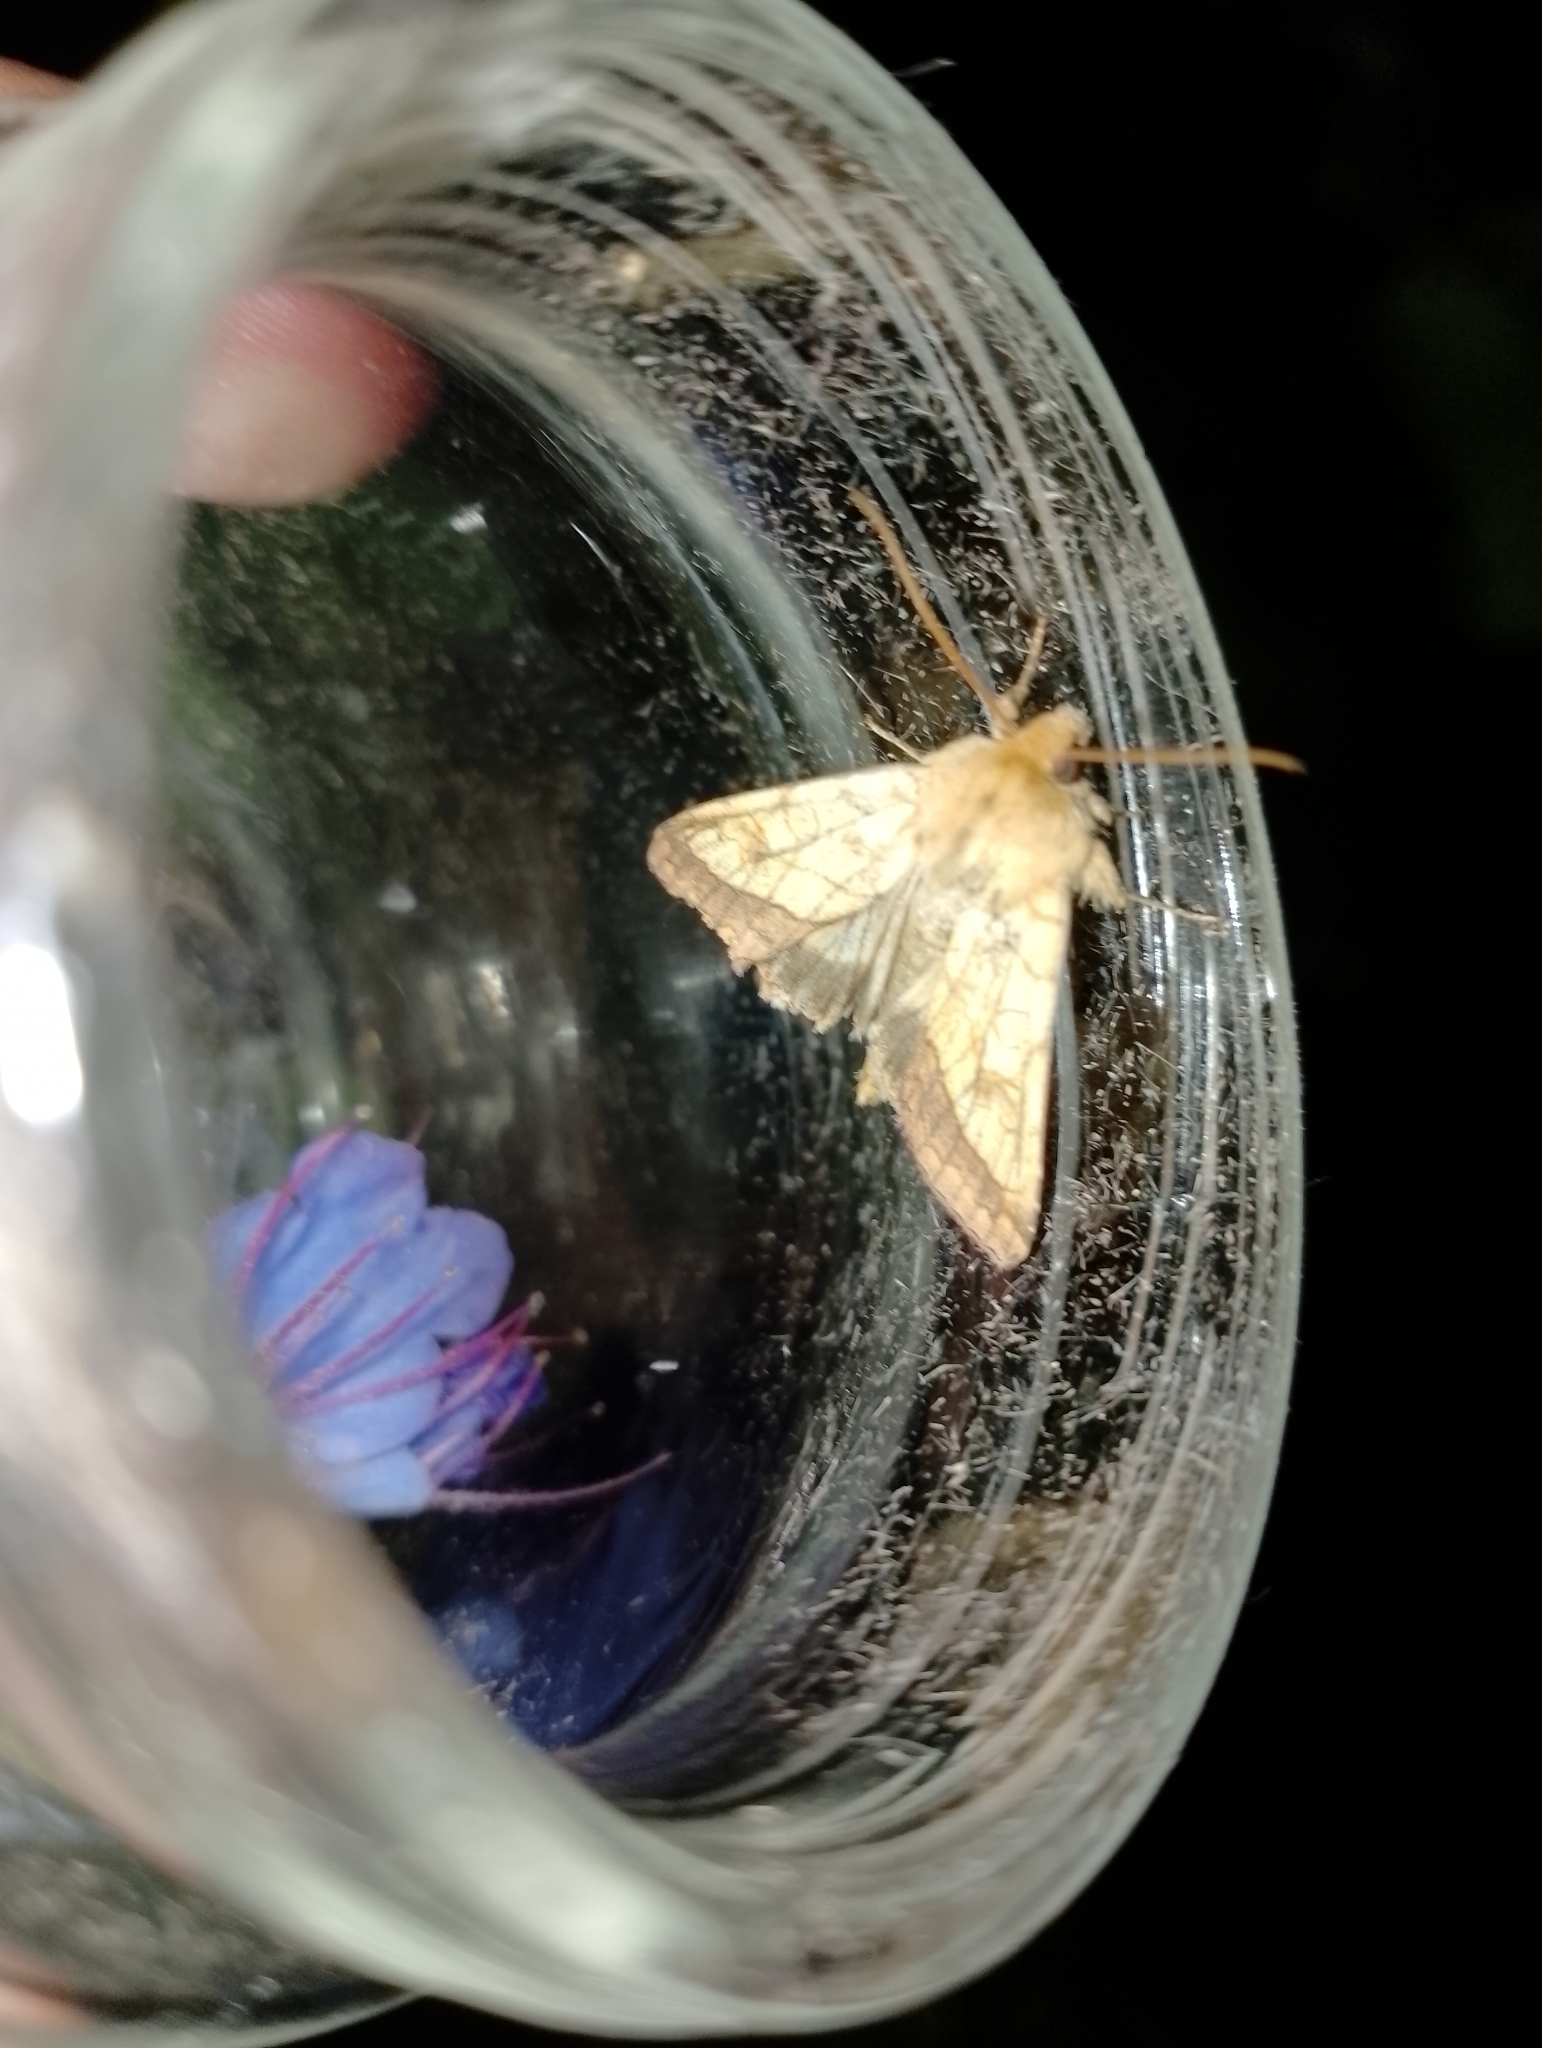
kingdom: Animalia
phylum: Arthropoda
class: Insecta
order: Lepidoptera
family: Noctuidae
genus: Pyrrhia
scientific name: Pyrrhia umbra
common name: Bordered sallow
